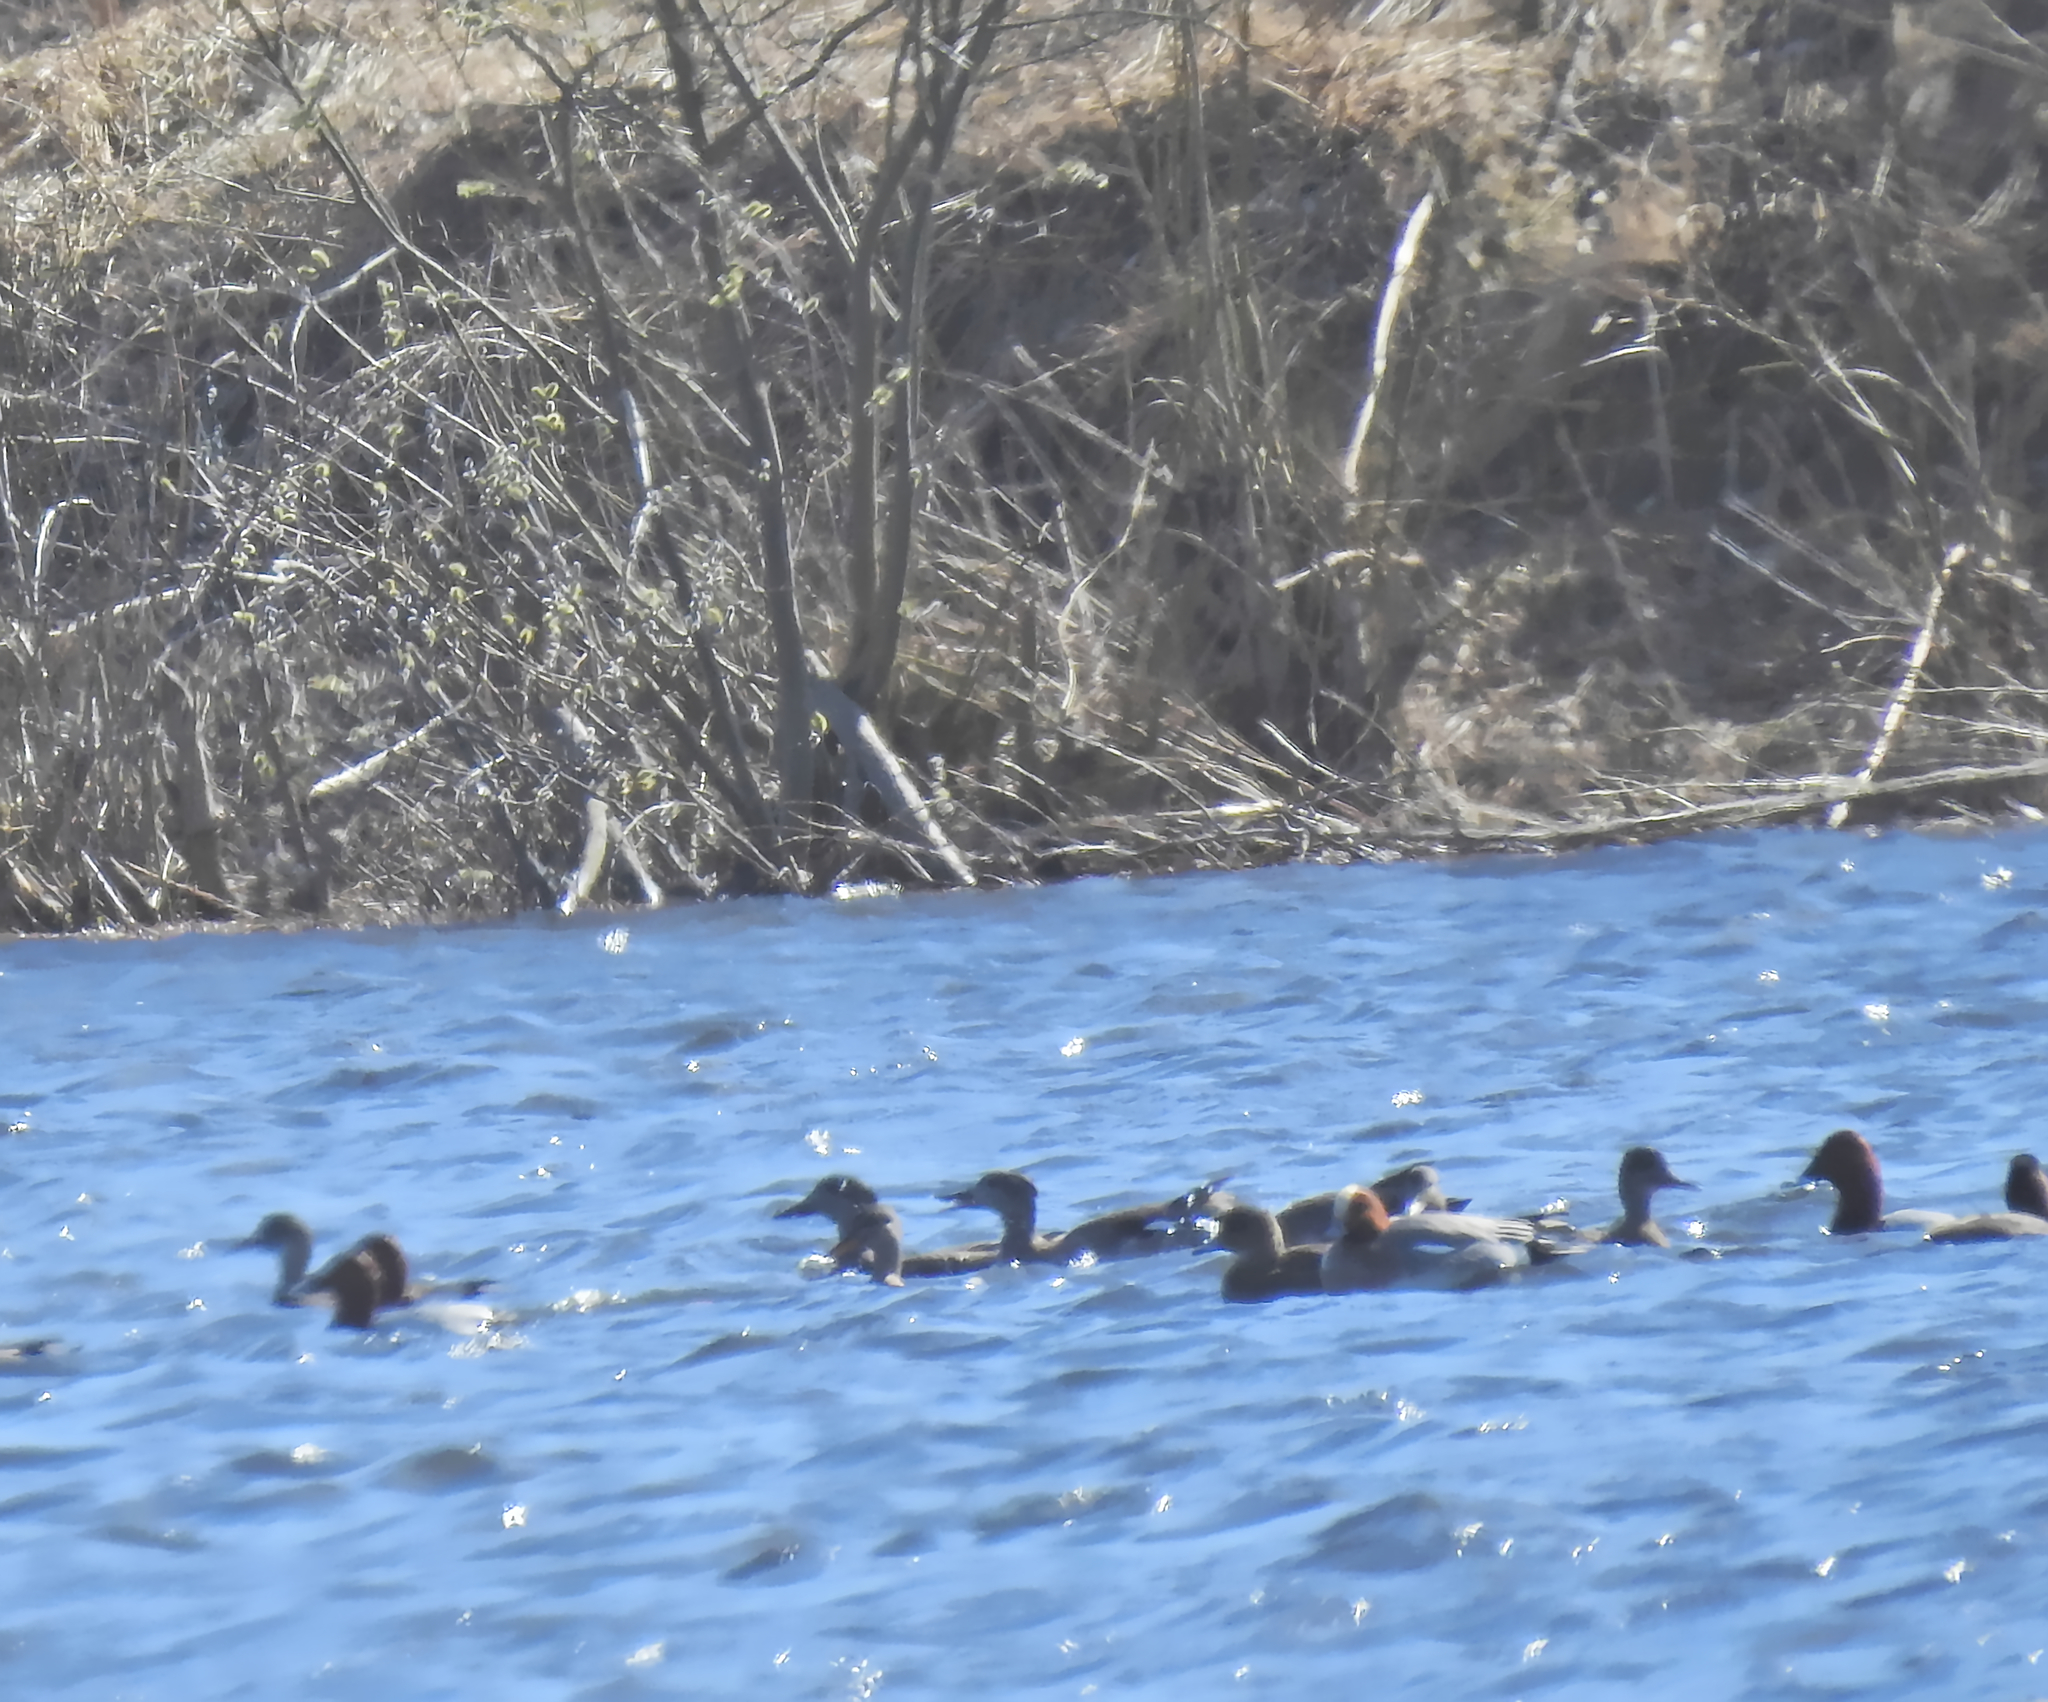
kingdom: Animalia
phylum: Chordata
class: Aves
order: Anseriformes
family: Anatidae
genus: Mareca
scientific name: Mareca penelope
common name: Eurasian wigeon
